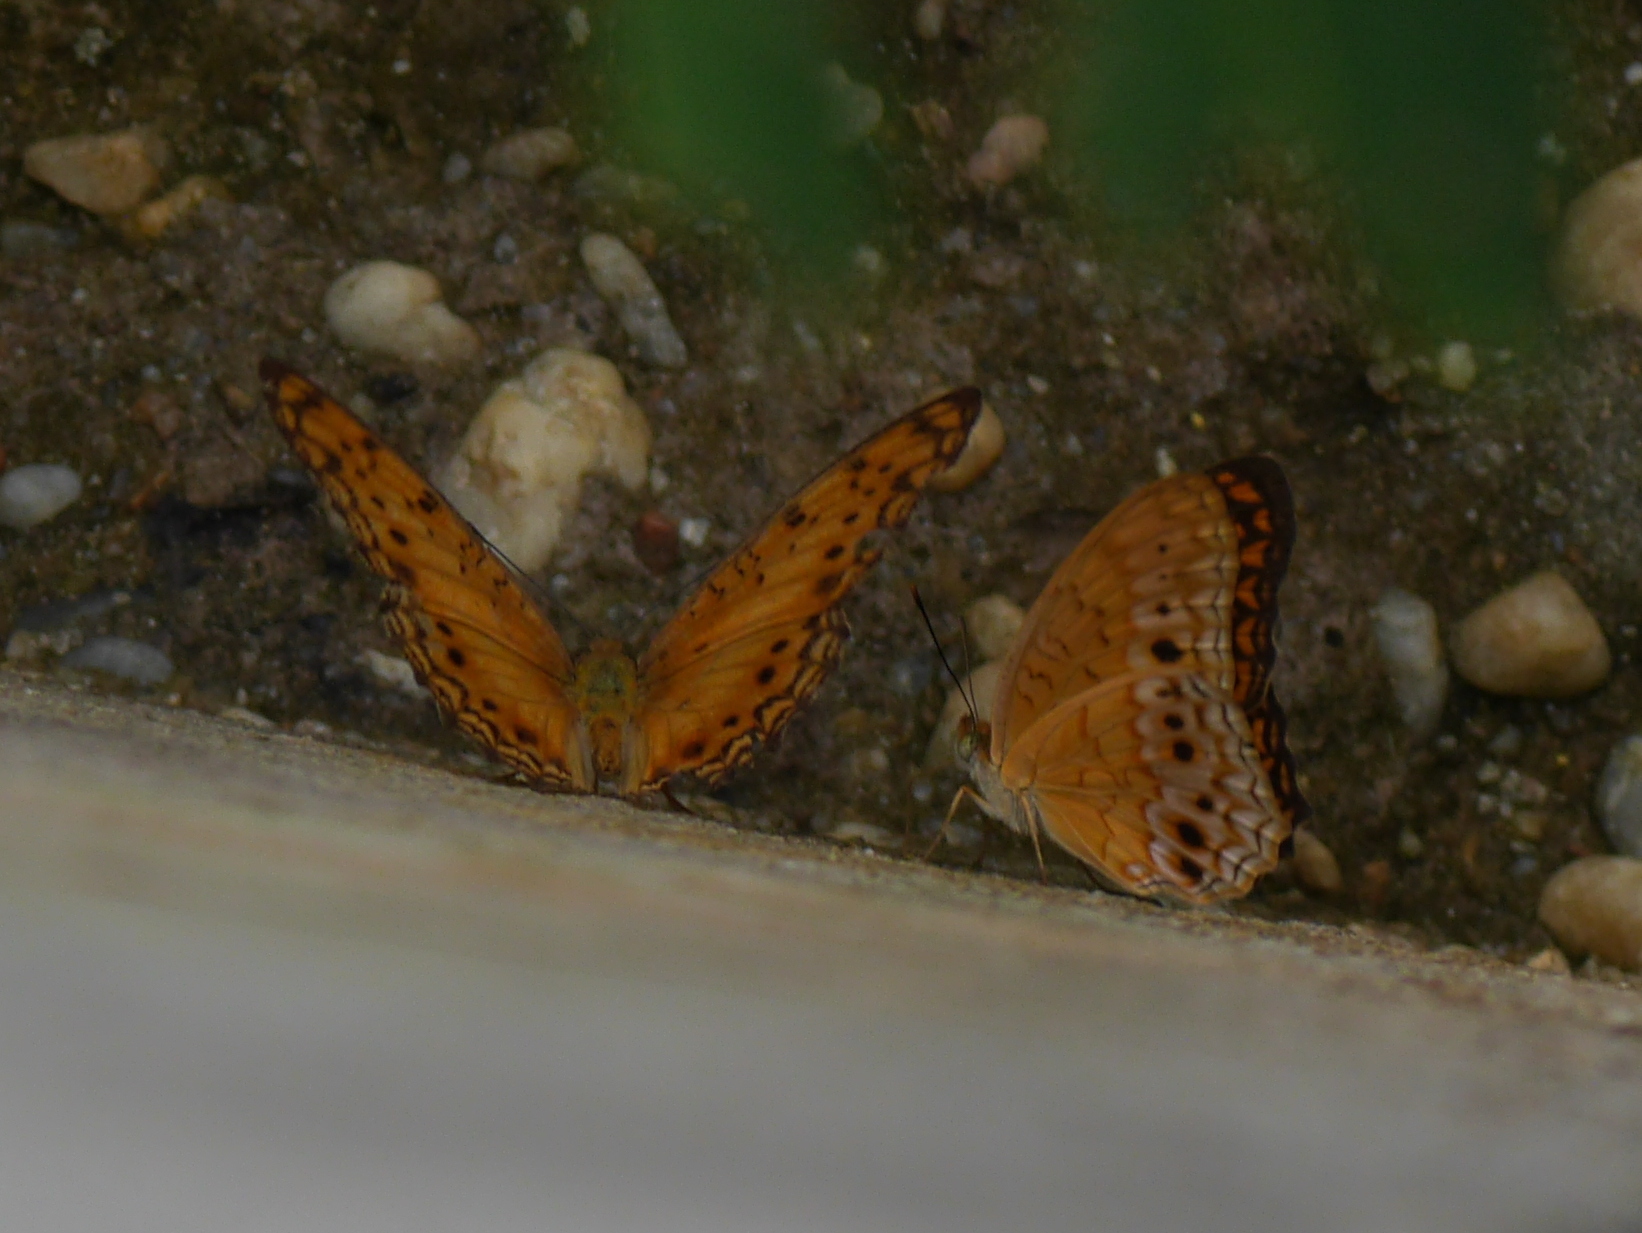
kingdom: Animalia
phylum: Arthropoda
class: Insecta
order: Lepidoptera
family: Nymphalidae
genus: Phalanta
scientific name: Phalanta columbina
